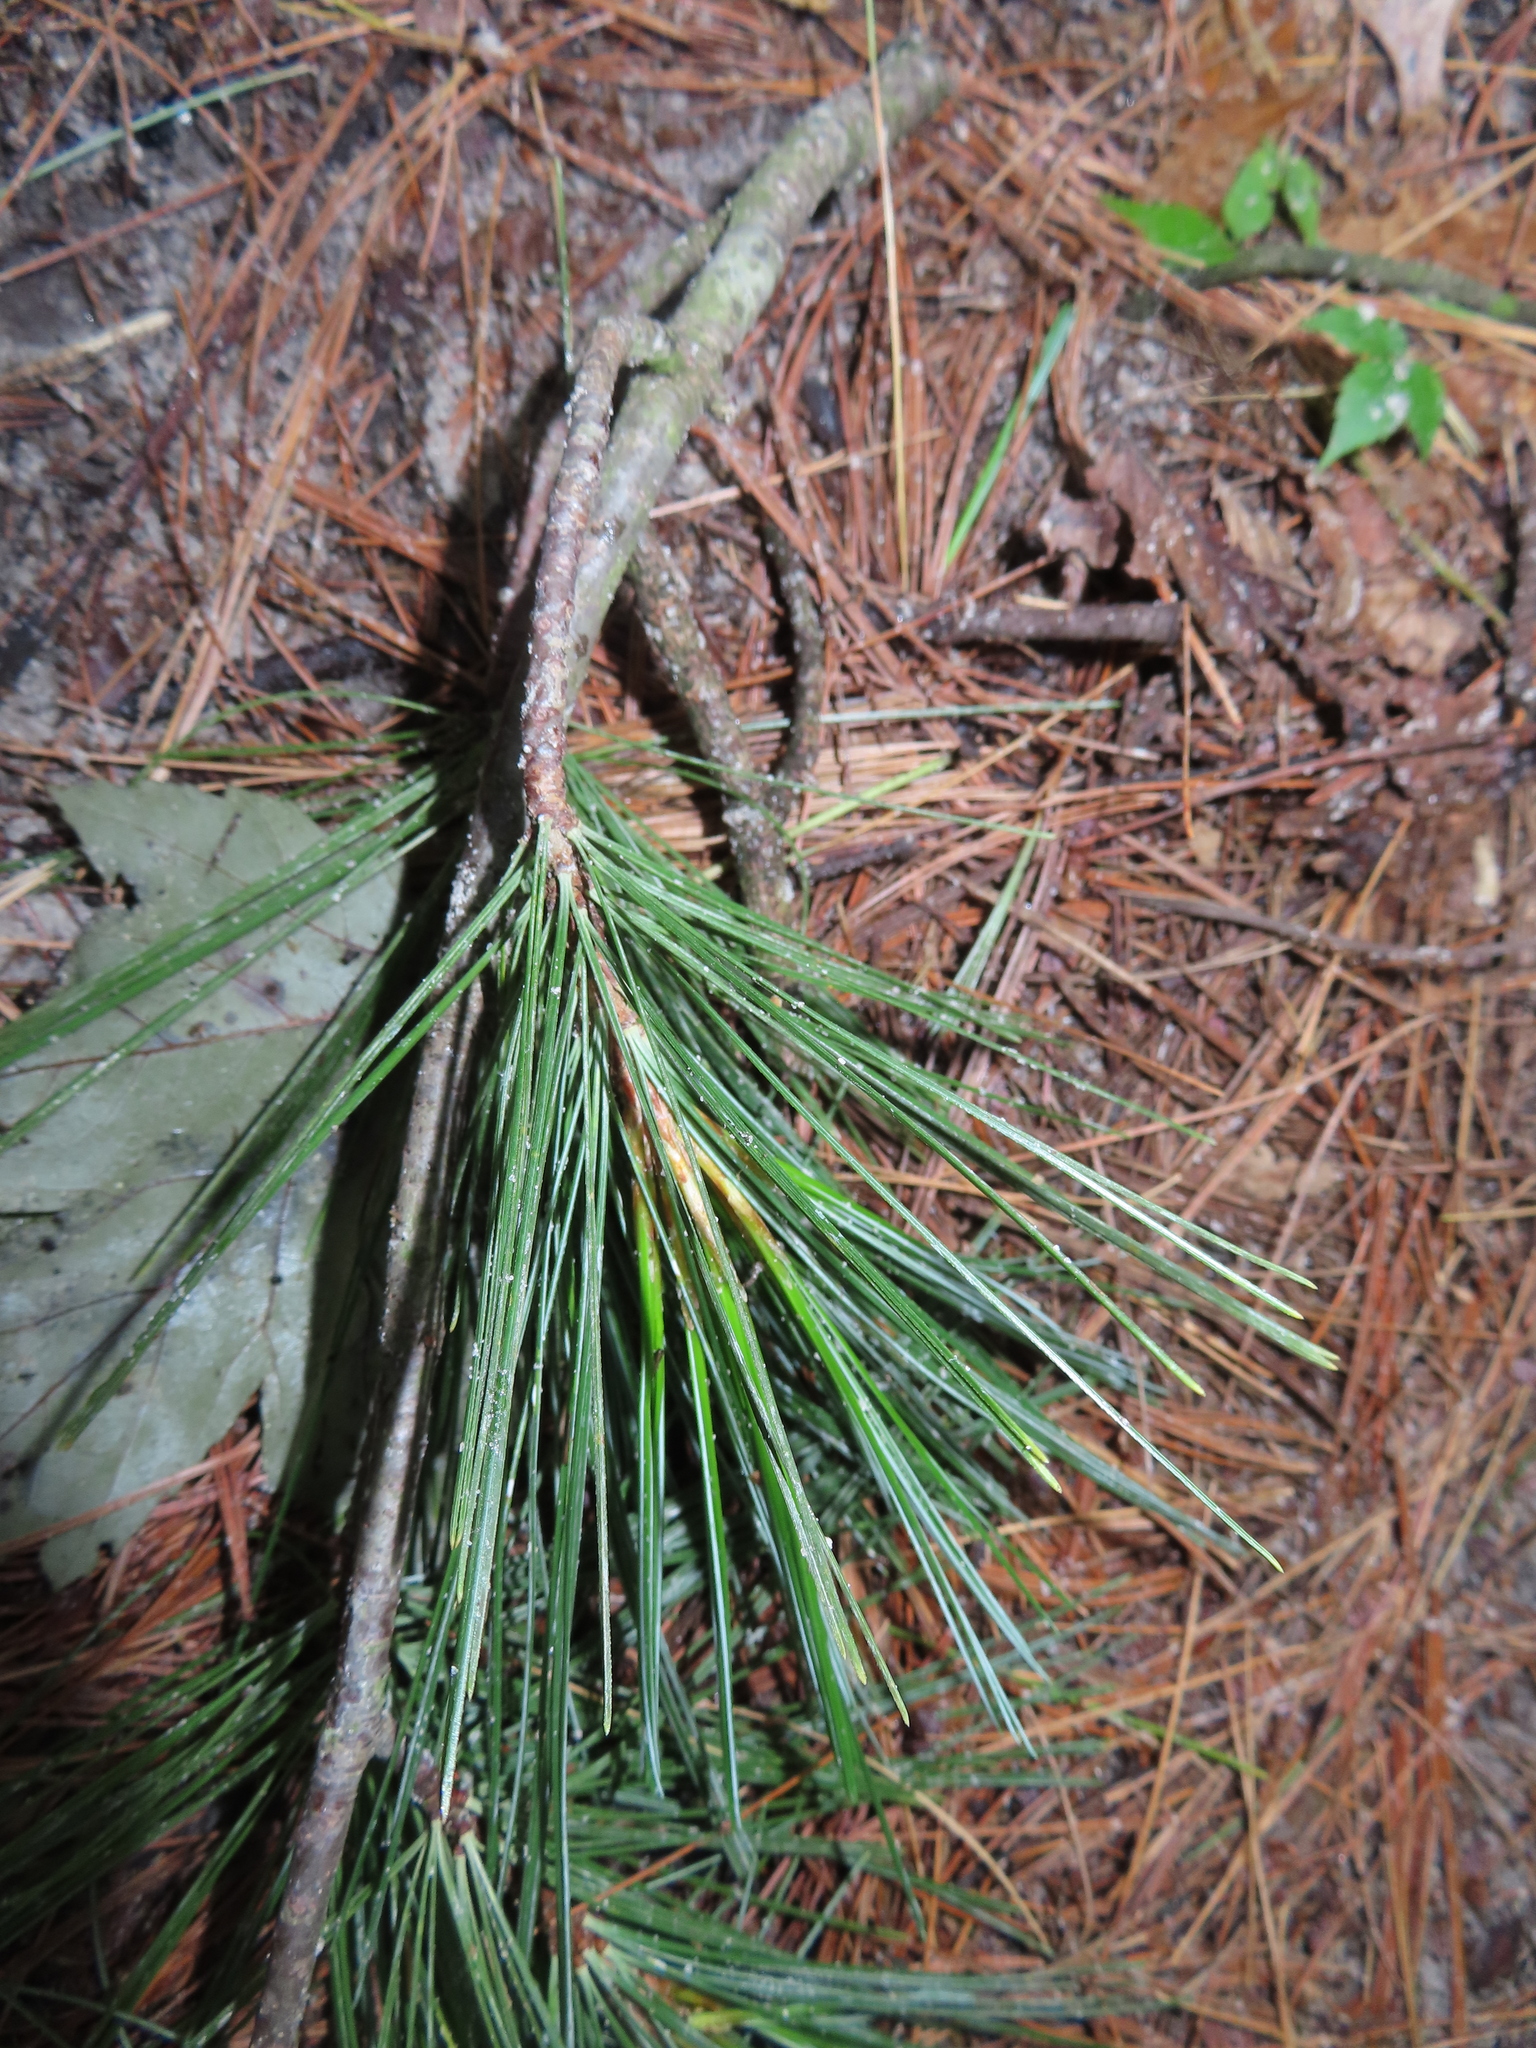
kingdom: Plantae
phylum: Tracheophyta
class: Pinopsida
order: Pinales
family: Pinaceae
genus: Pinus
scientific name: Pinus strobus
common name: Weymouth pine
